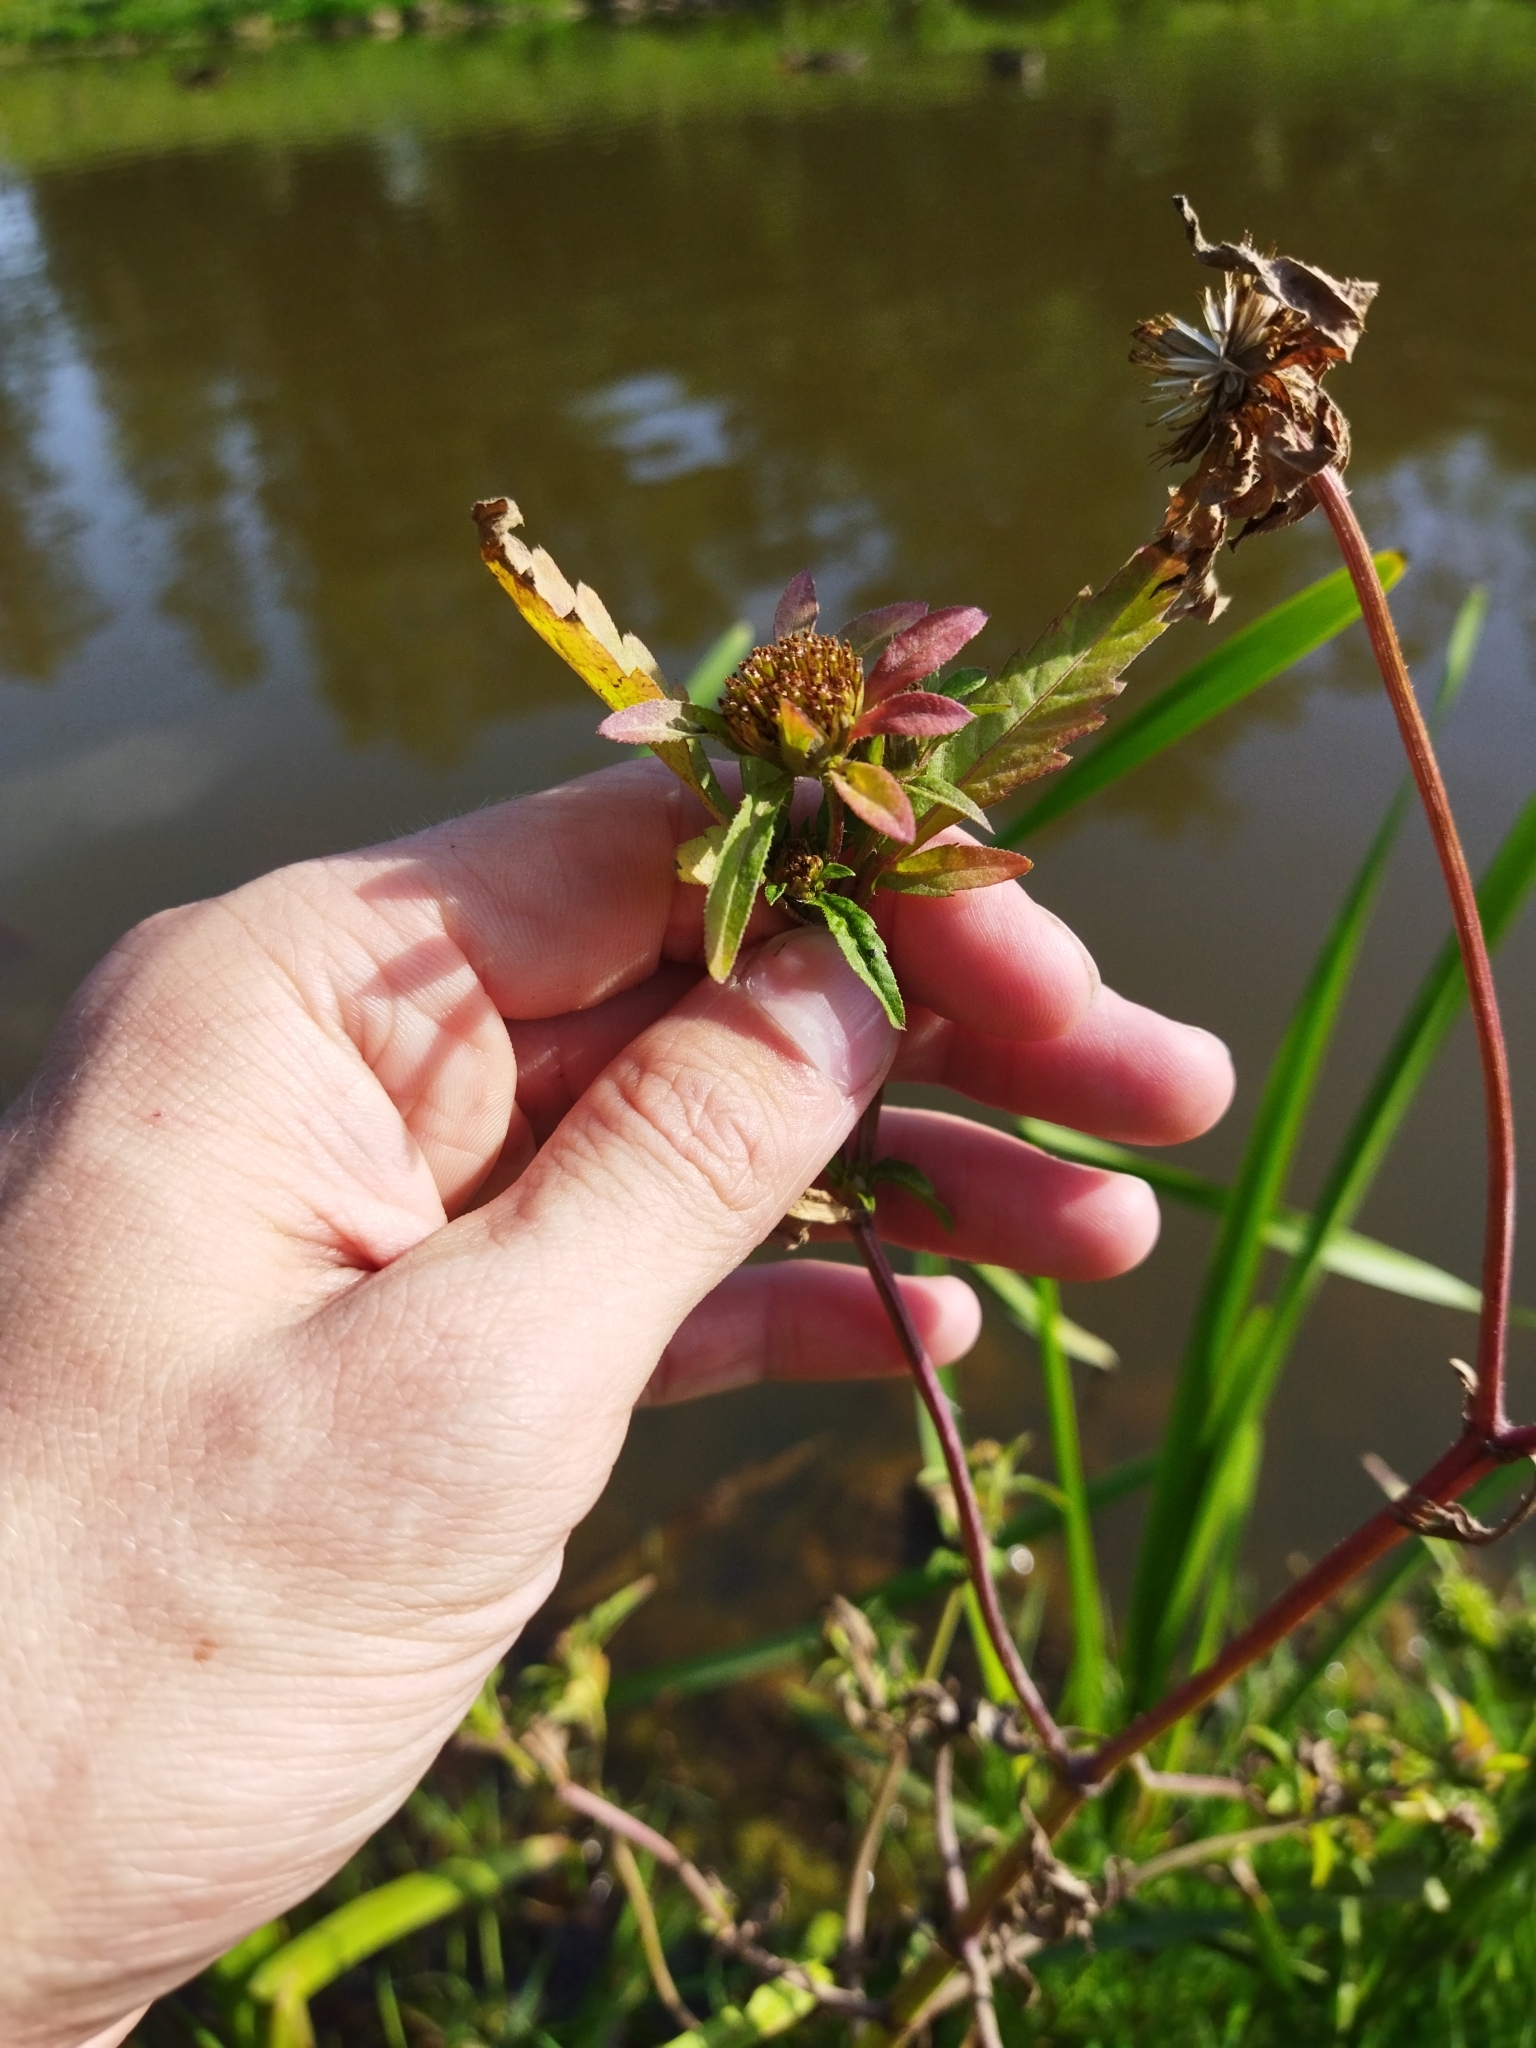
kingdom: Plantae
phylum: Tracheophyta
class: Magnoliopsida
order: Asterales
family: Asteraceae
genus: Bidens
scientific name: Bidens tripartita
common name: Trifid bur-marigold
